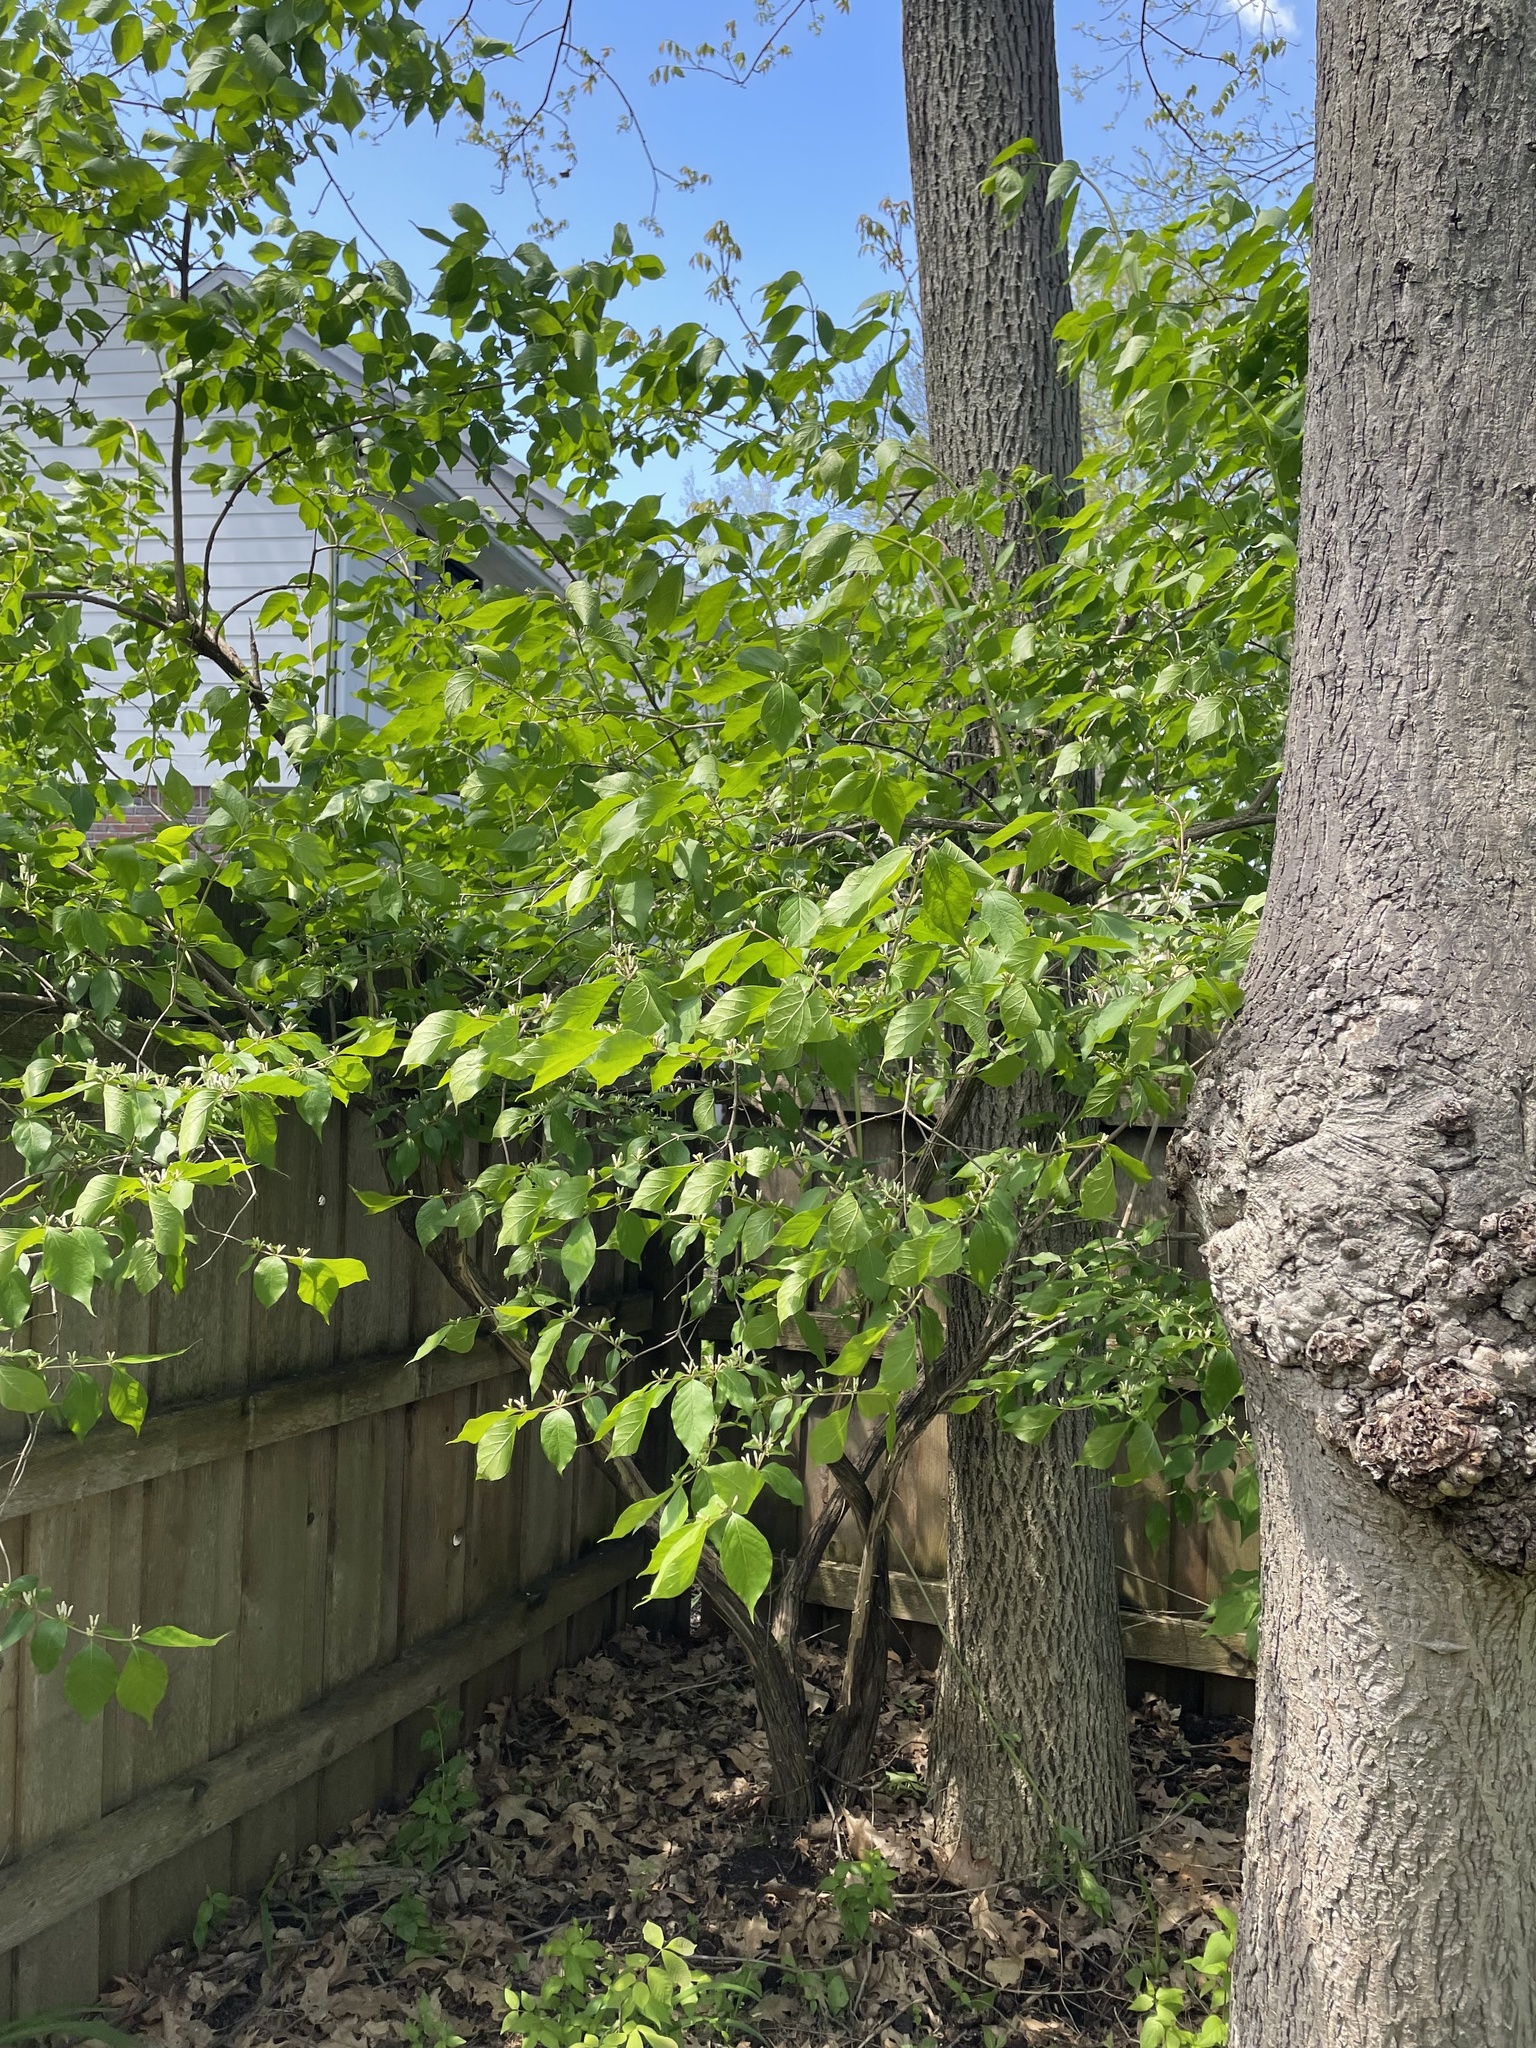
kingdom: Plantae
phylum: Tracheophyta
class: Magnoliopsida
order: Dipsacales
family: Caprifoliaceae
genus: Lonicera
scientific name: Lonicera maackii
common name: Amur honeysuckle
